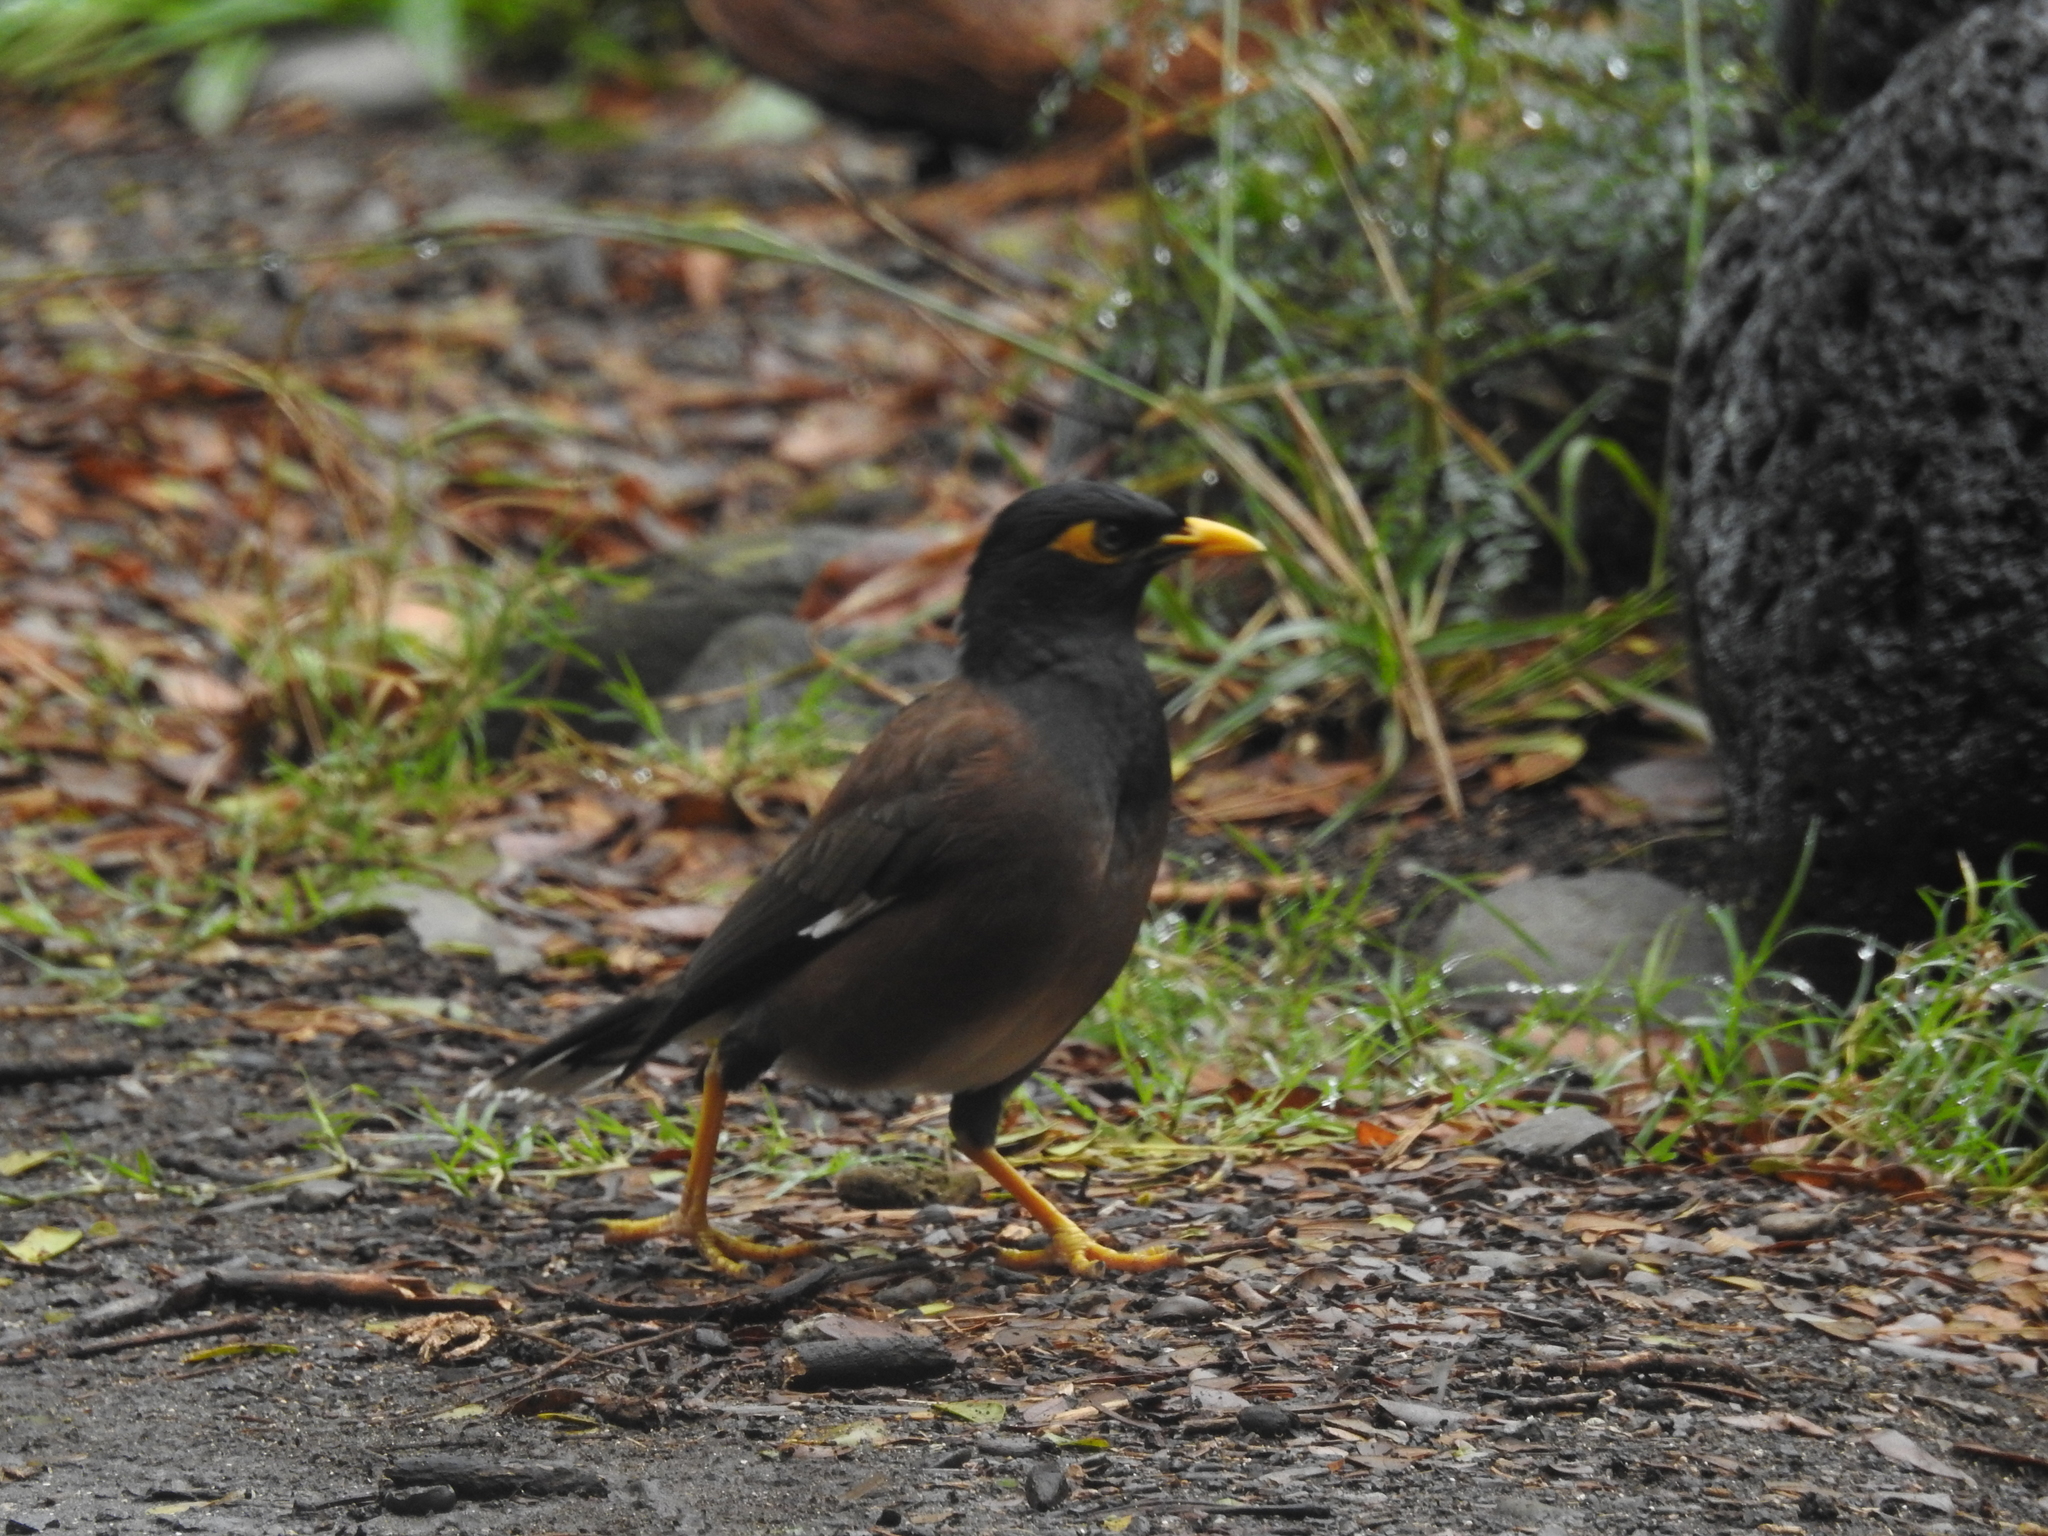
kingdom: Animalia
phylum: Chordata
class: Aves
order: Passeriformes
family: Sturnidae
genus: Acridotheres
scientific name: Acridotheres tristis
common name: Common myna
